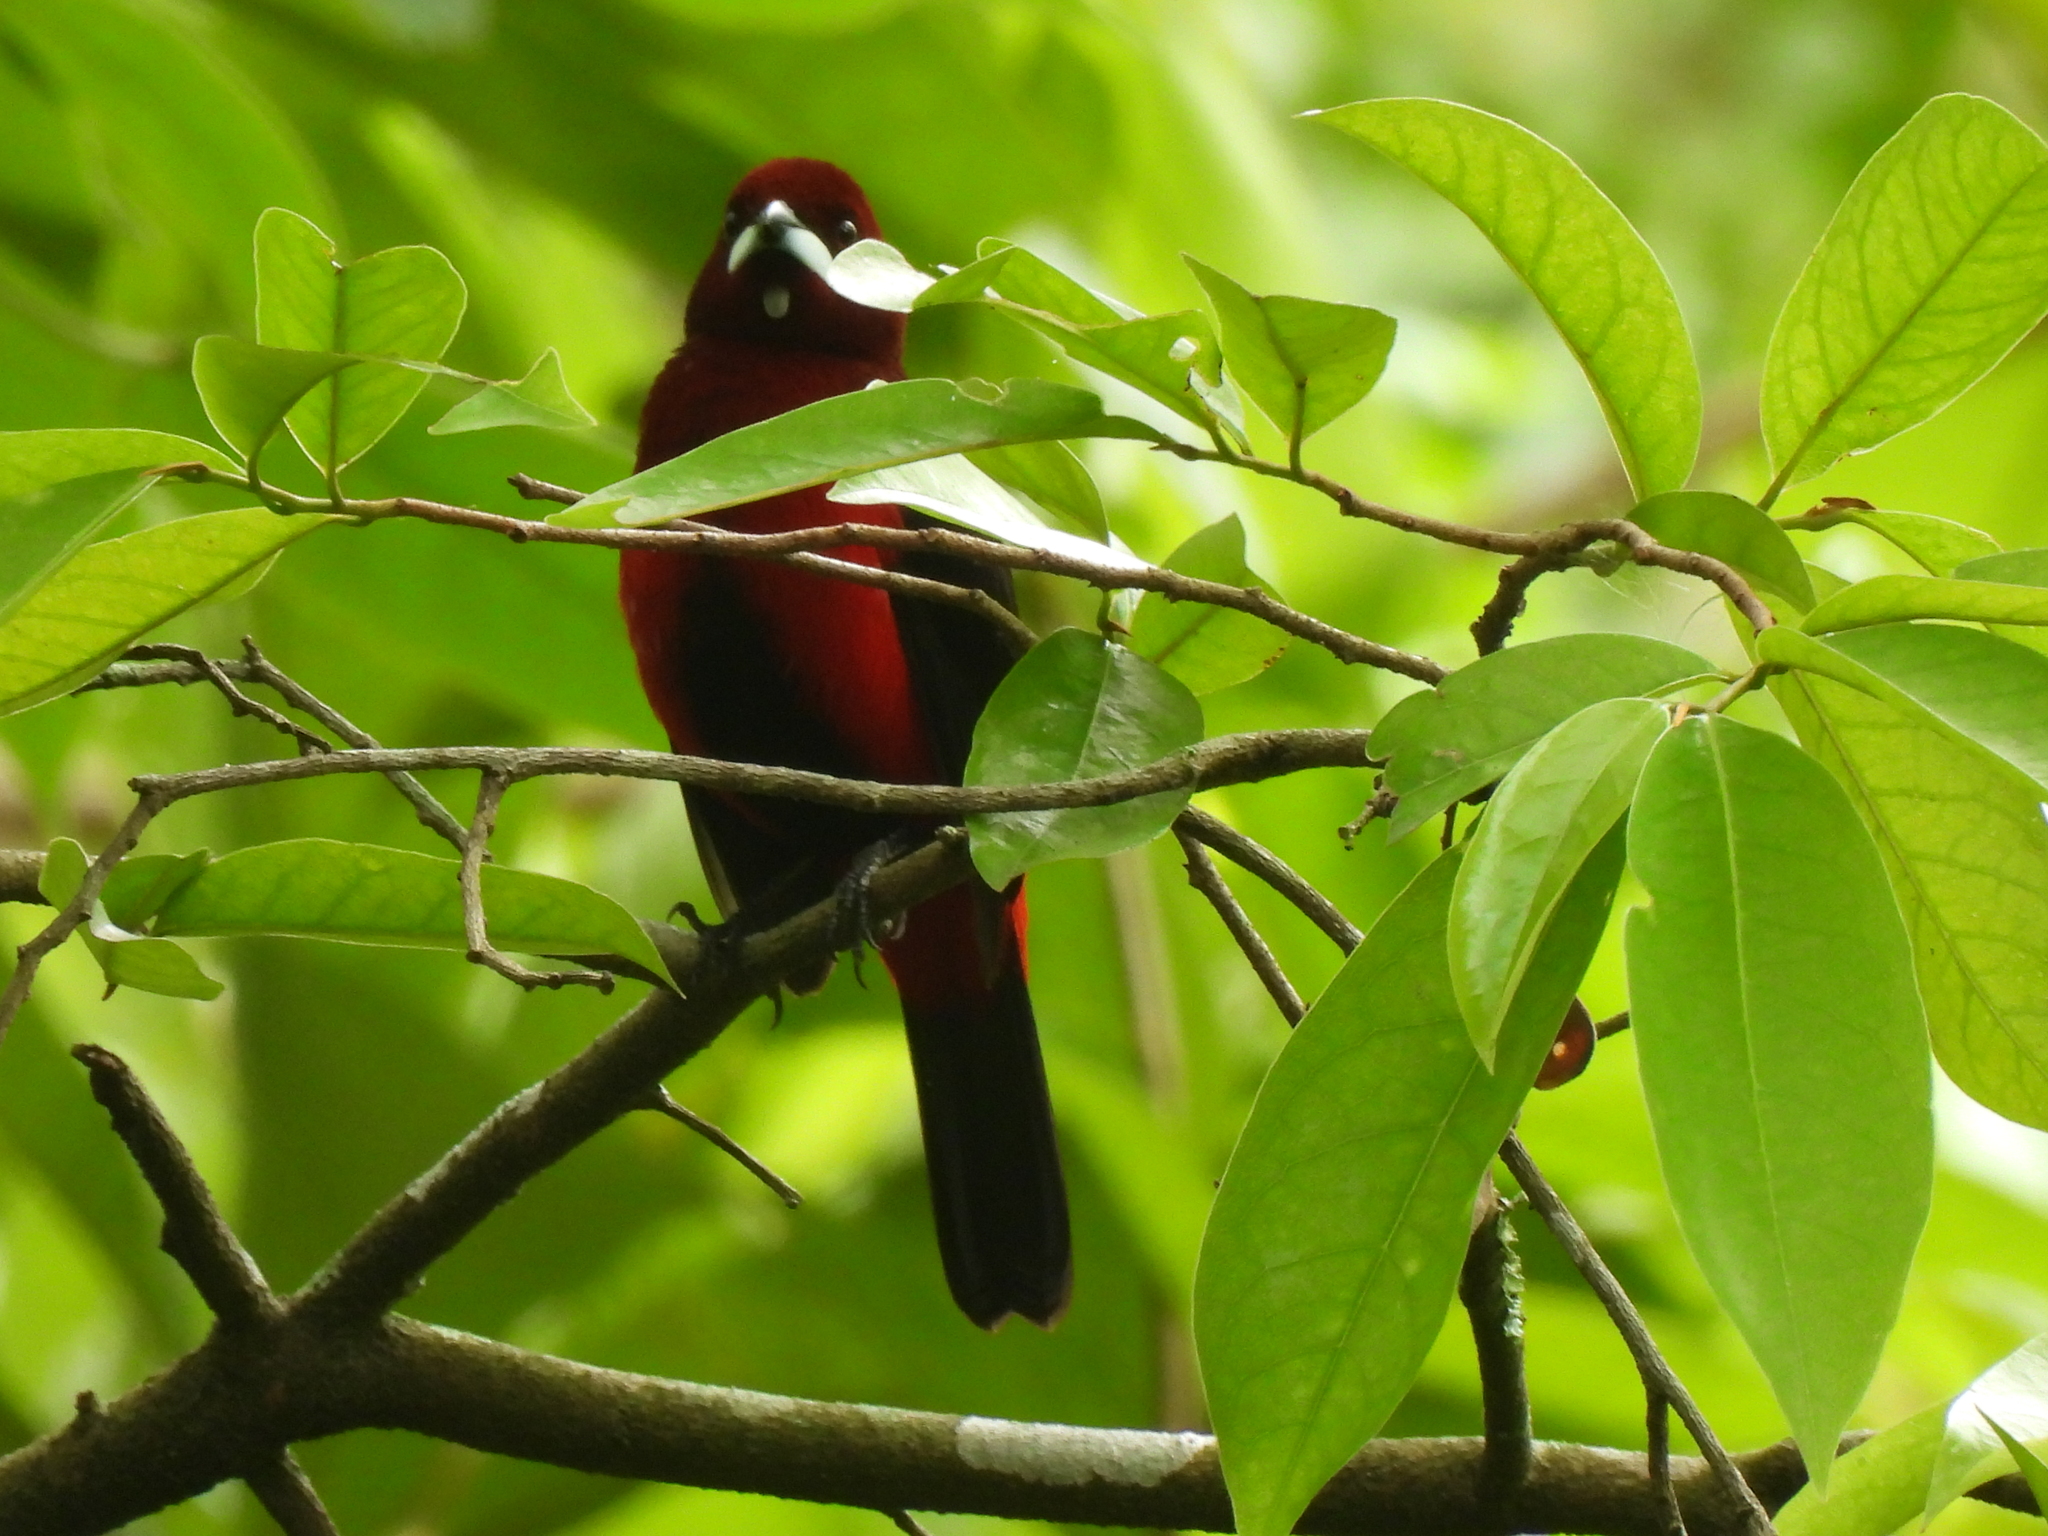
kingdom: Animalia
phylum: Chordata
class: Aves
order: Passeriformes
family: Thraupidae
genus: Ramphocelus
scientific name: Ramphocelus dimidiatus
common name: Crimson-backed tanager
